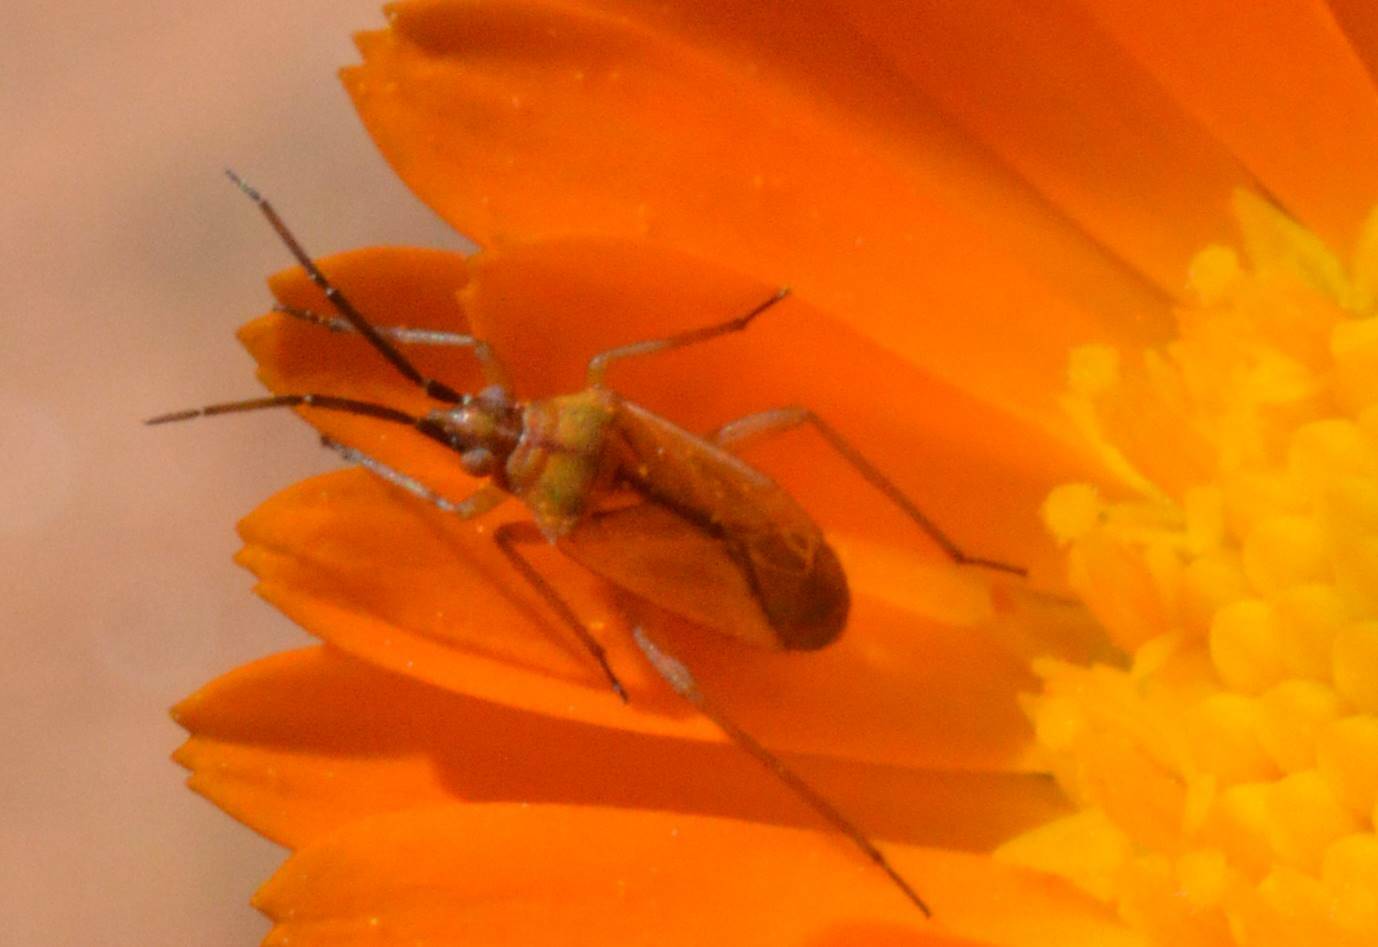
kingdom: Animalia
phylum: Arthropoda
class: Insecta
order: Hemiptera
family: Miridae
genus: Macrotylus
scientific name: Macrotylus nigricornis
